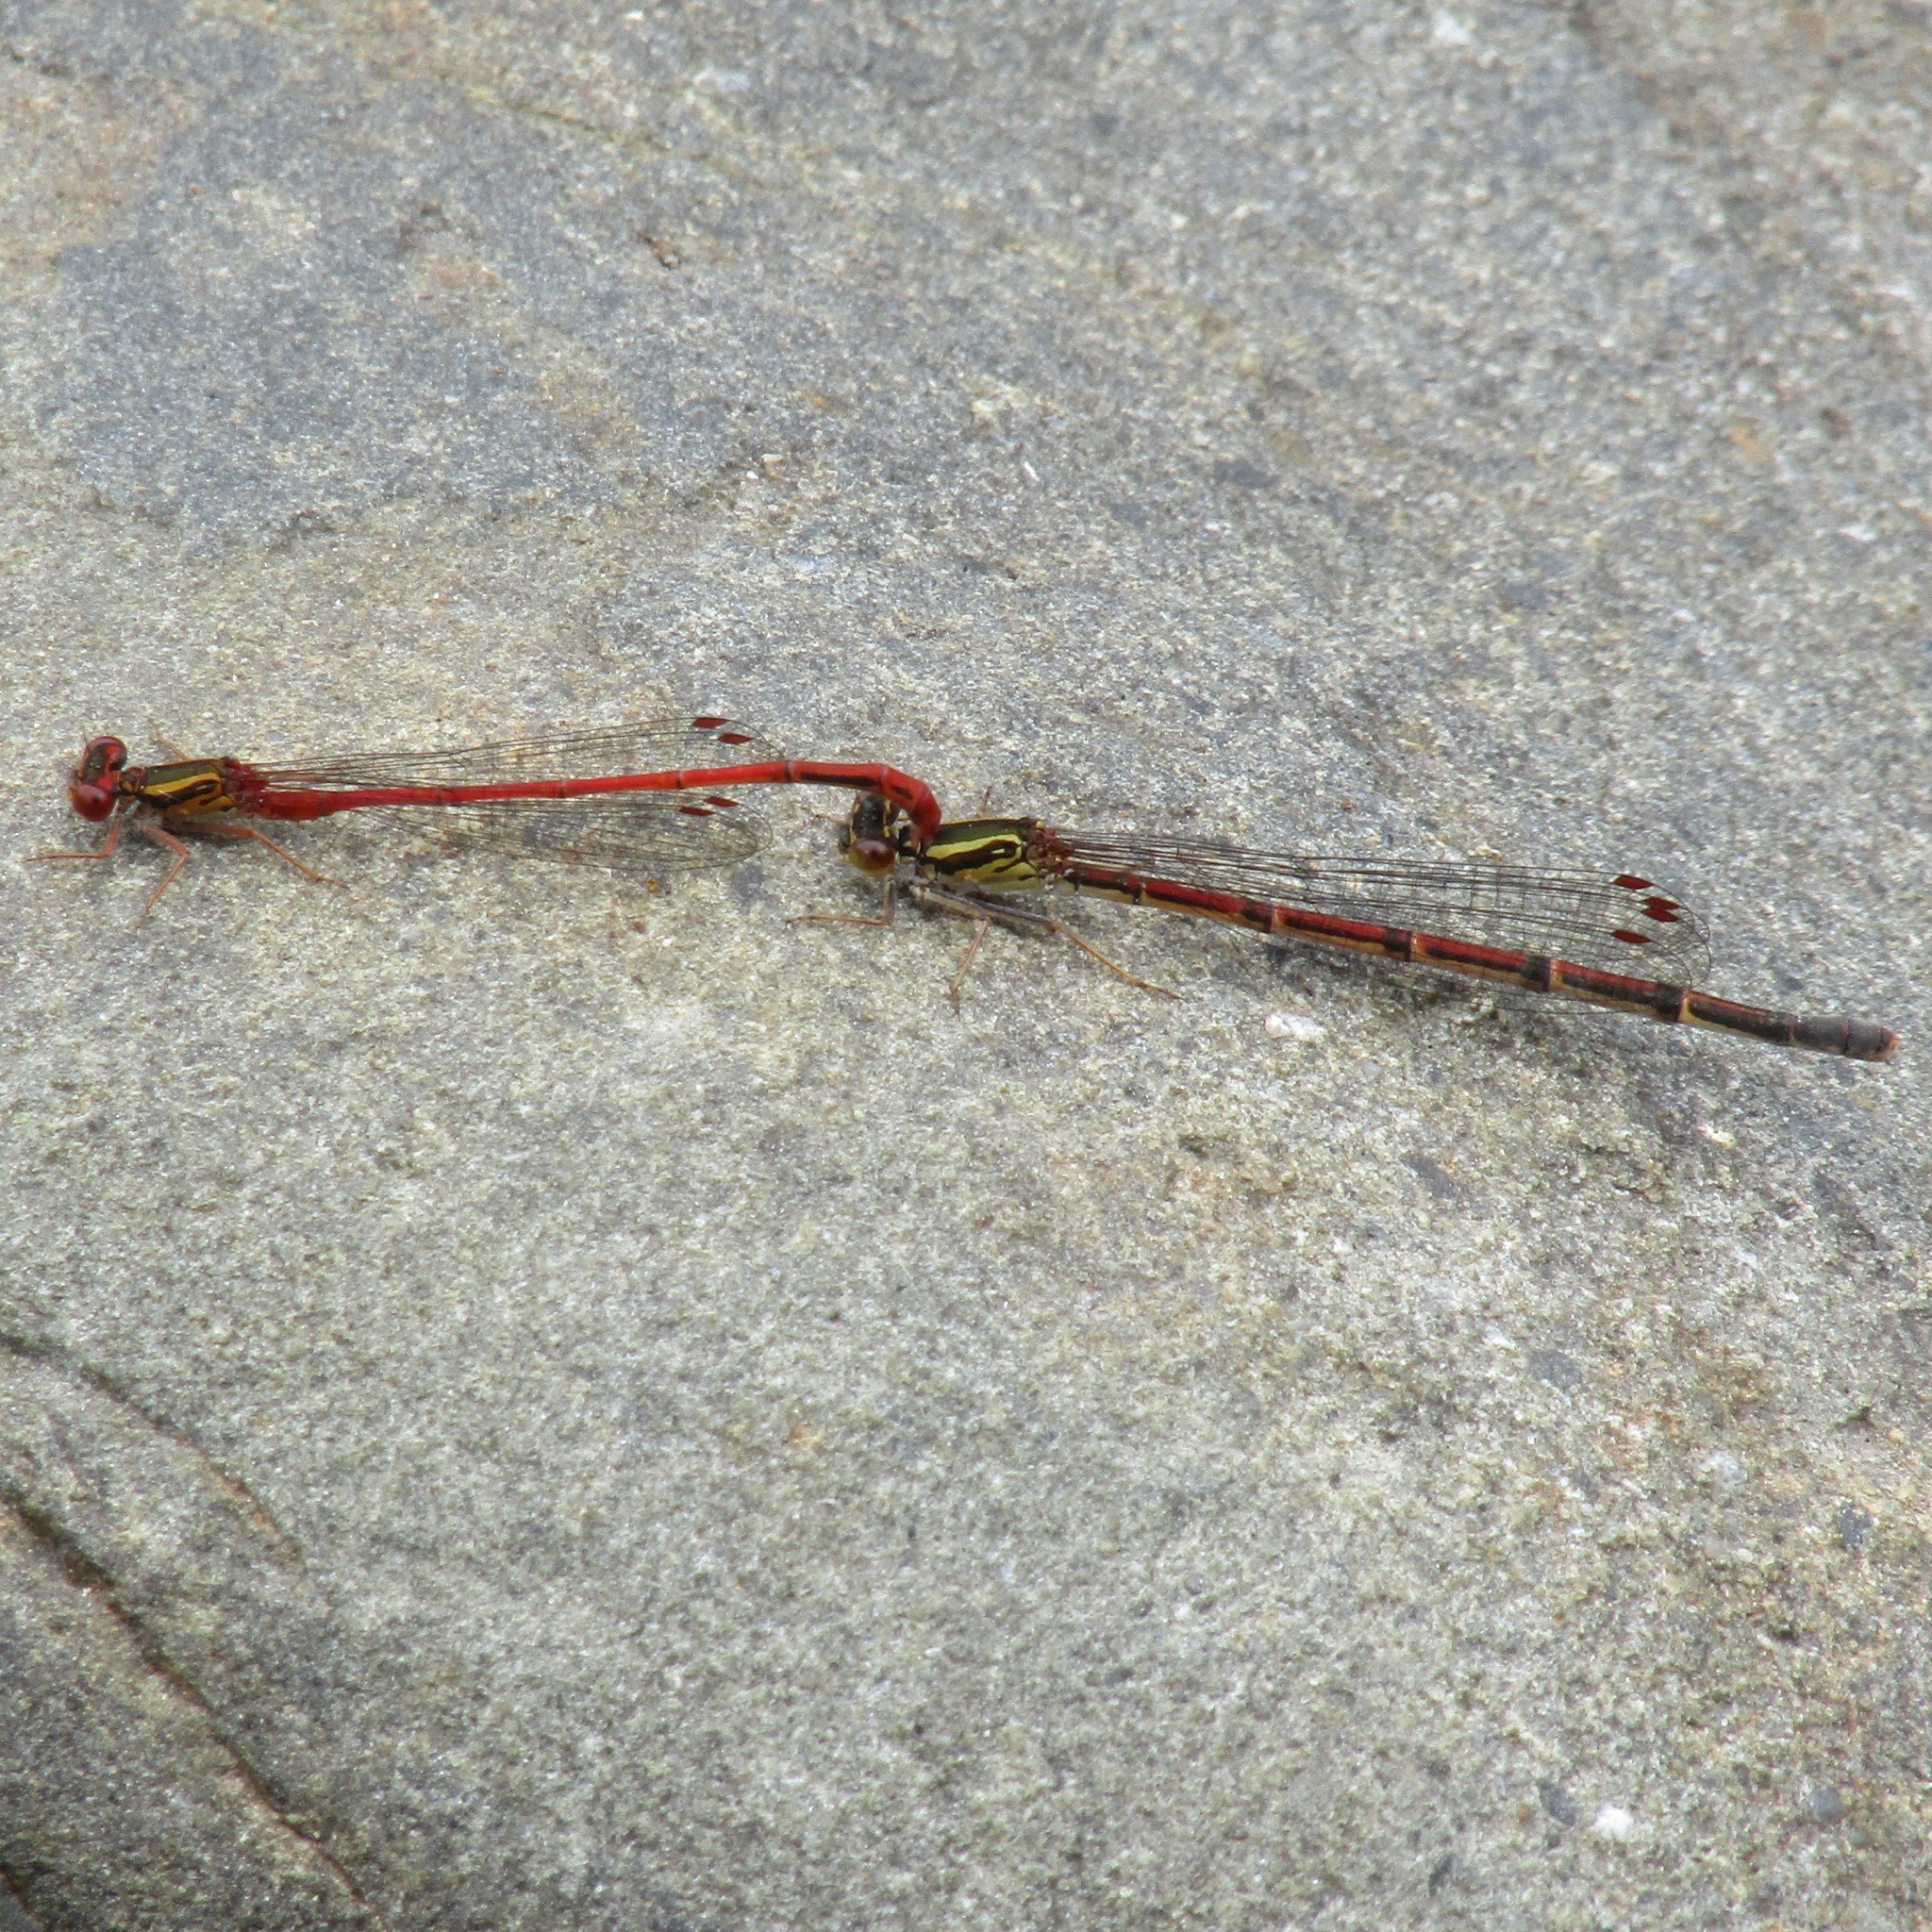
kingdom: Animalia
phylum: Arthropoda
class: Insecta
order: Odonata
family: Coenagrionidae
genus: Xanthocnemis
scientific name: Xanthocnemis zealandica
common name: Common redcoat damselfly
